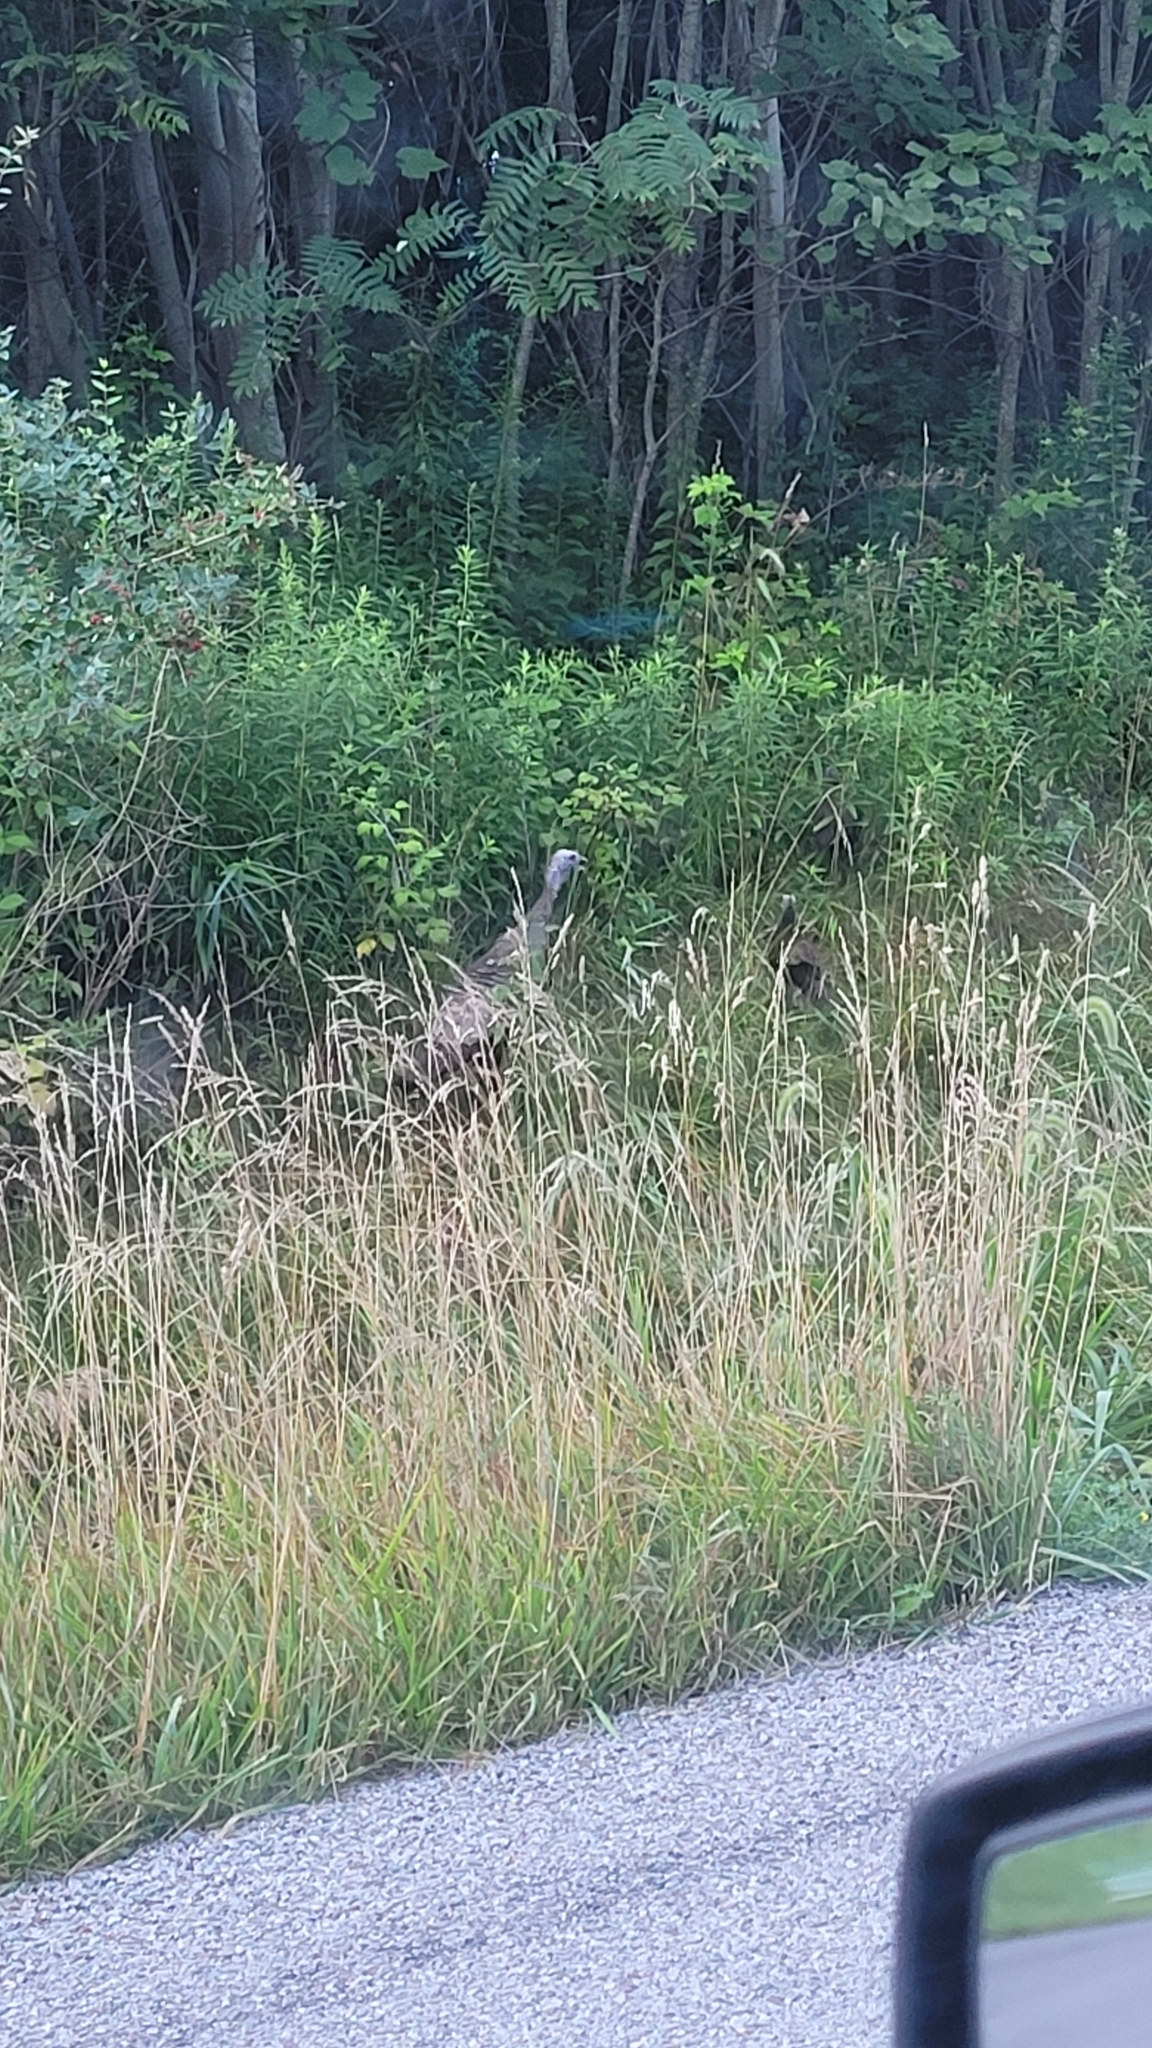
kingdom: Animalia
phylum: Chordata
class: Aves
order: Galliformes
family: Phasianidae
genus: Meleagris
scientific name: Meleagris gallopavo
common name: Wild turkey
